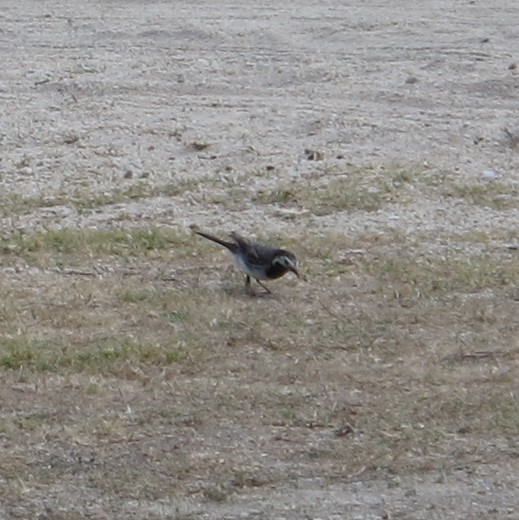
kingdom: Animalia
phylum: Chordata
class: Aves
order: Passeriformes
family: Motacillidae
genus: Motacilla
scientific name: Motacilla alba
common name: White wagtail
